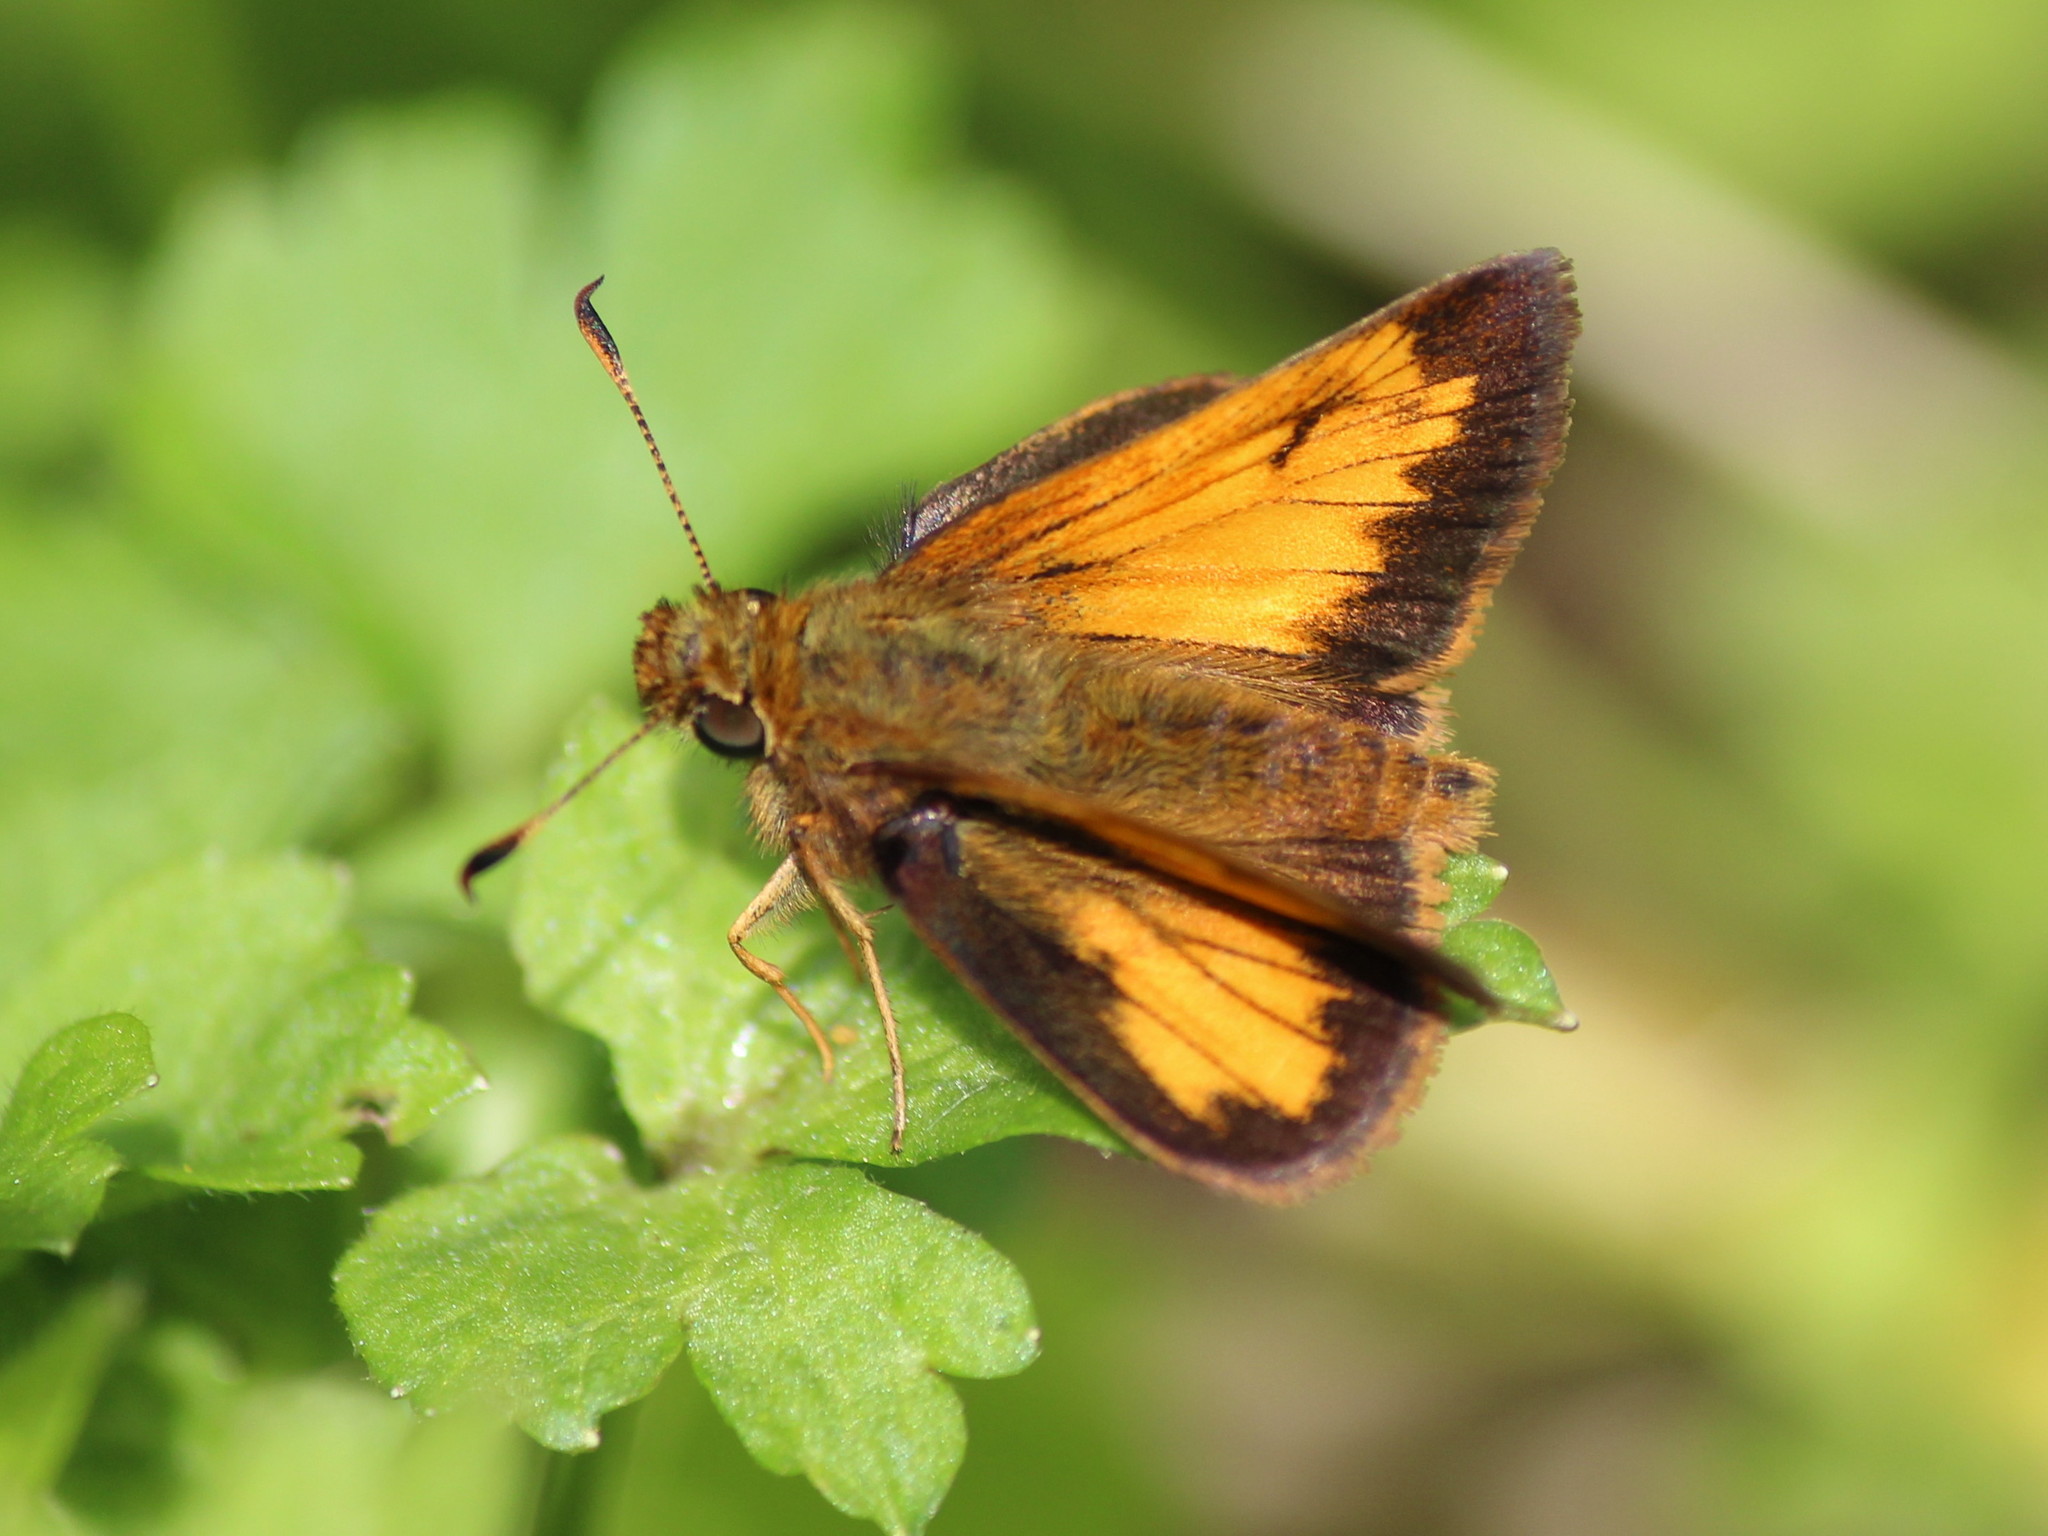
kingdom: Animalia
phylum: Arthropoda
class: Insecta
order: Lepidoptera
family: Hesperiidae
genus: Lon
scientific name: Lon hobomok
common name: Hobomok skipper
